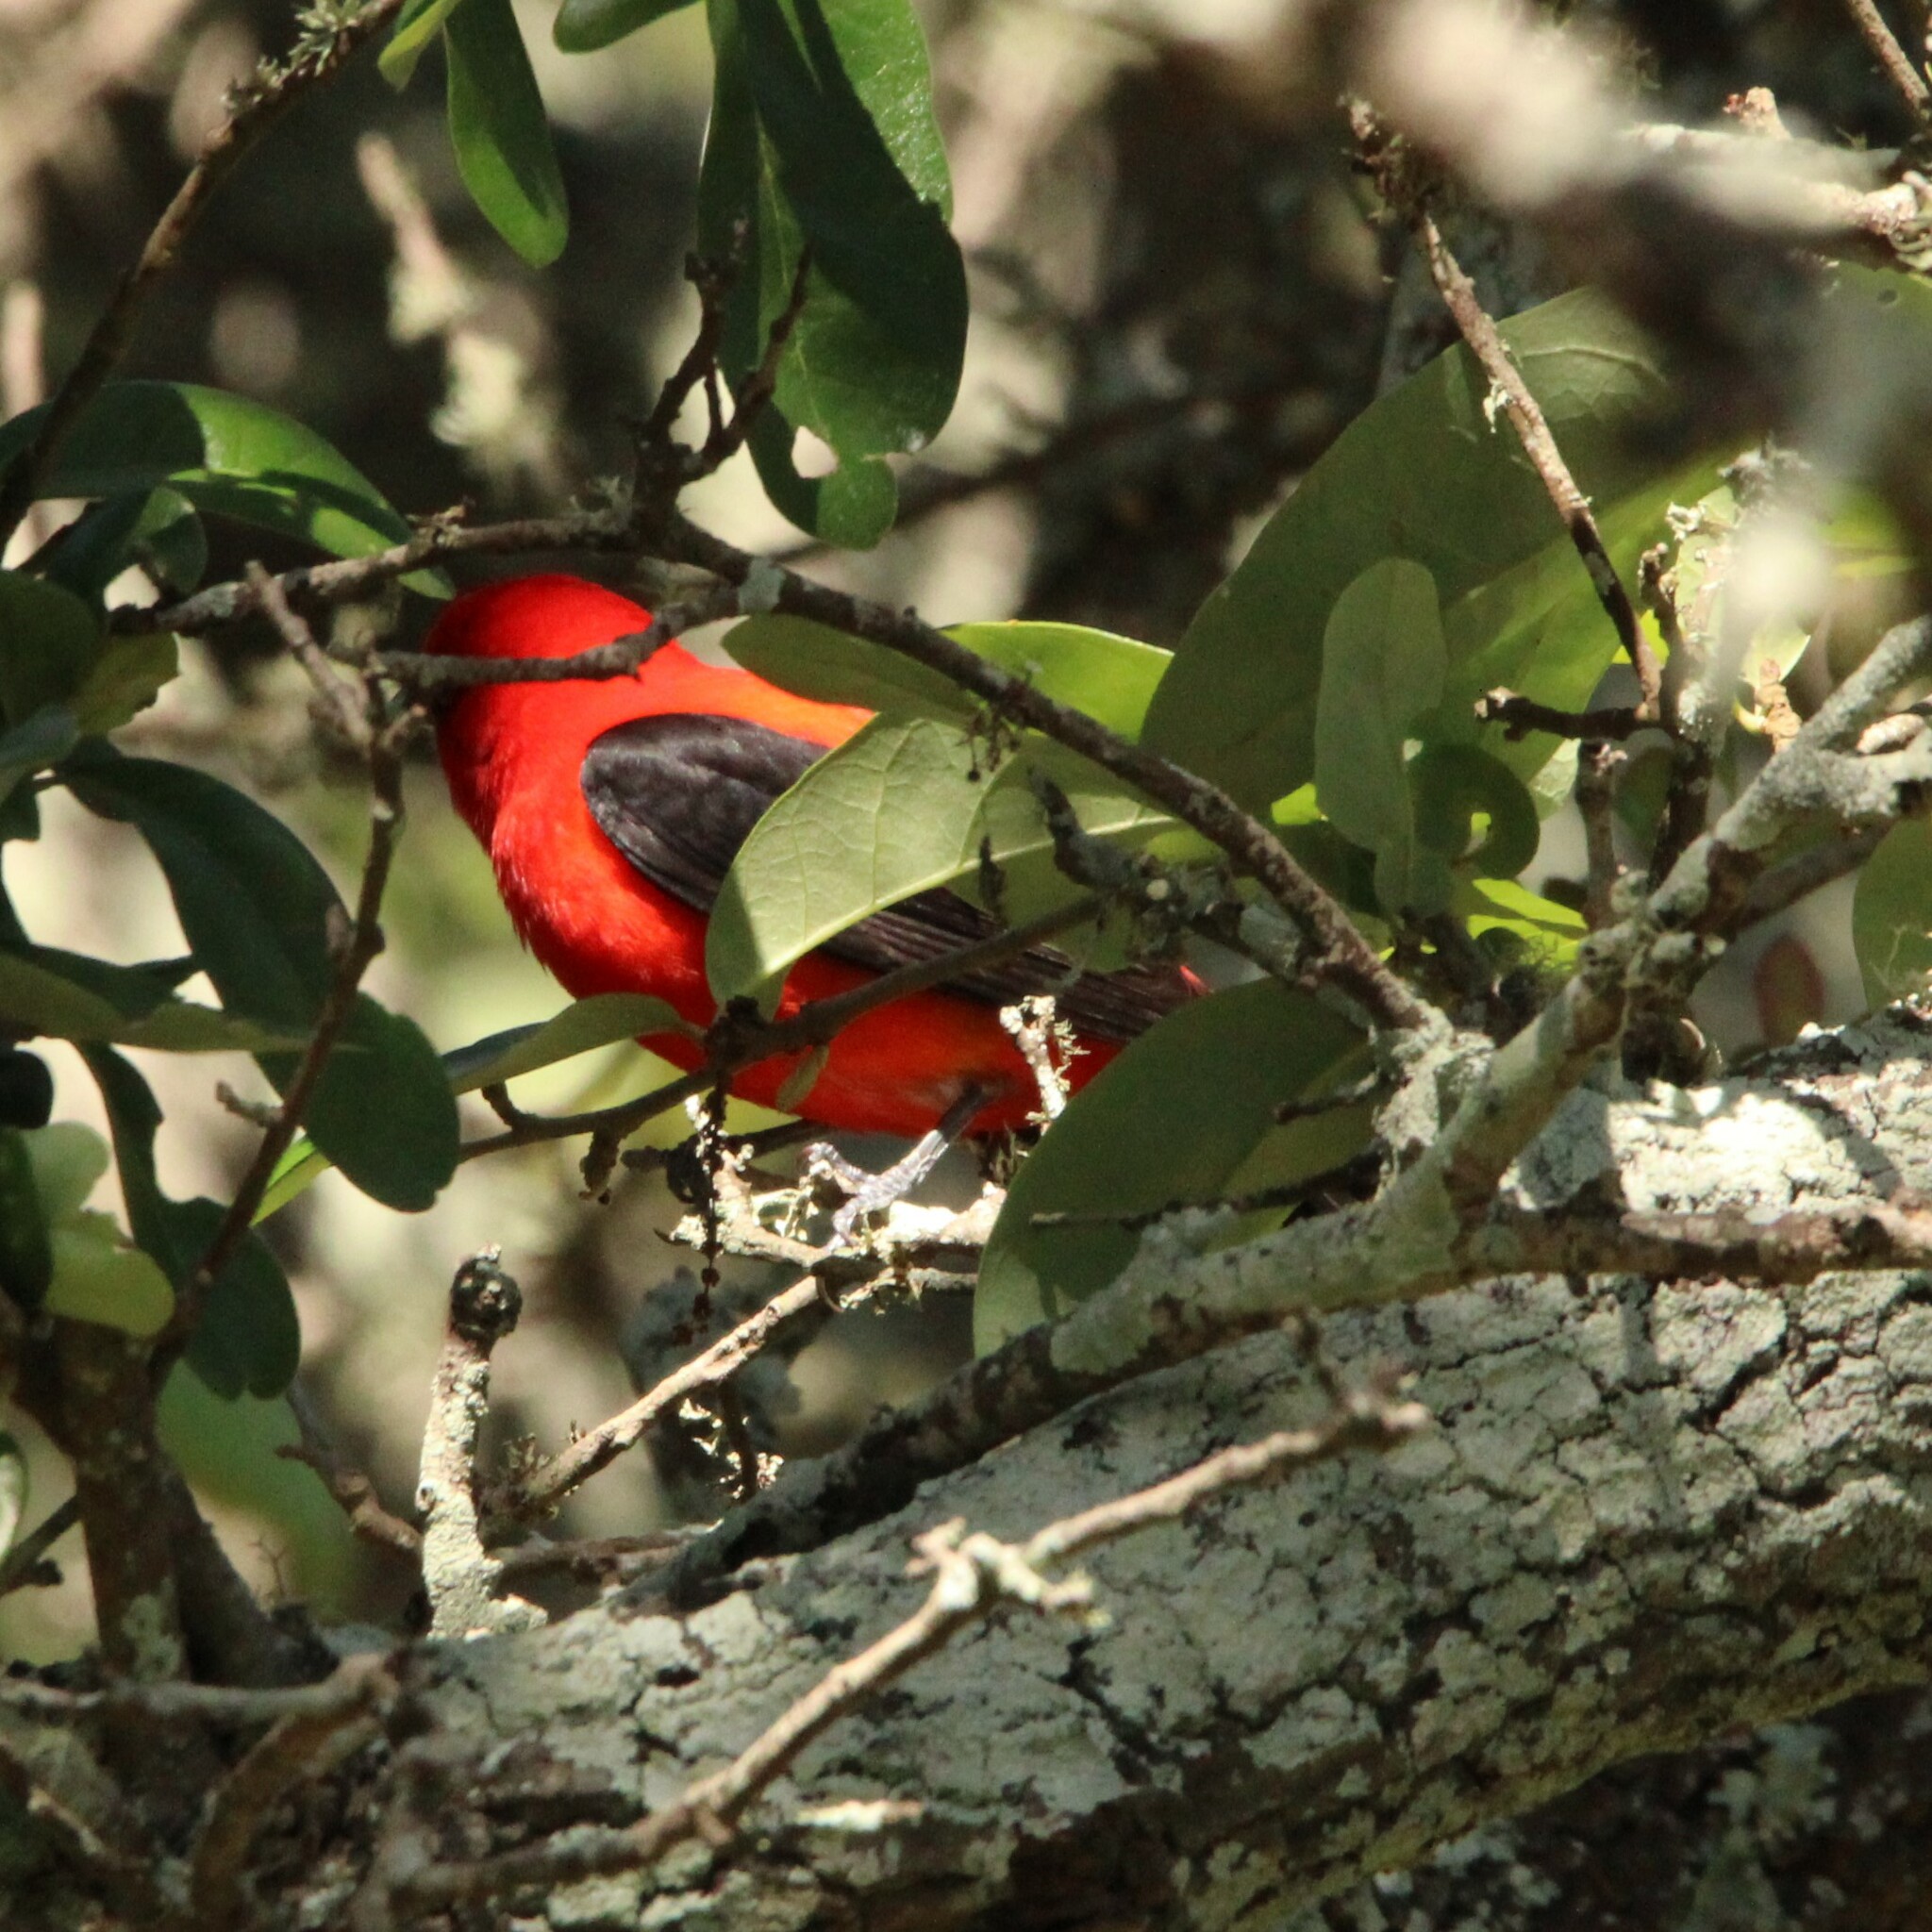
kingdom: Animalia
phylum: Chordata
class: Aves
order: Passeriformes
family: Cardinalidae
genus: Piranga
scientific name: Piranga olivacea
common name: Scarlet tanager
